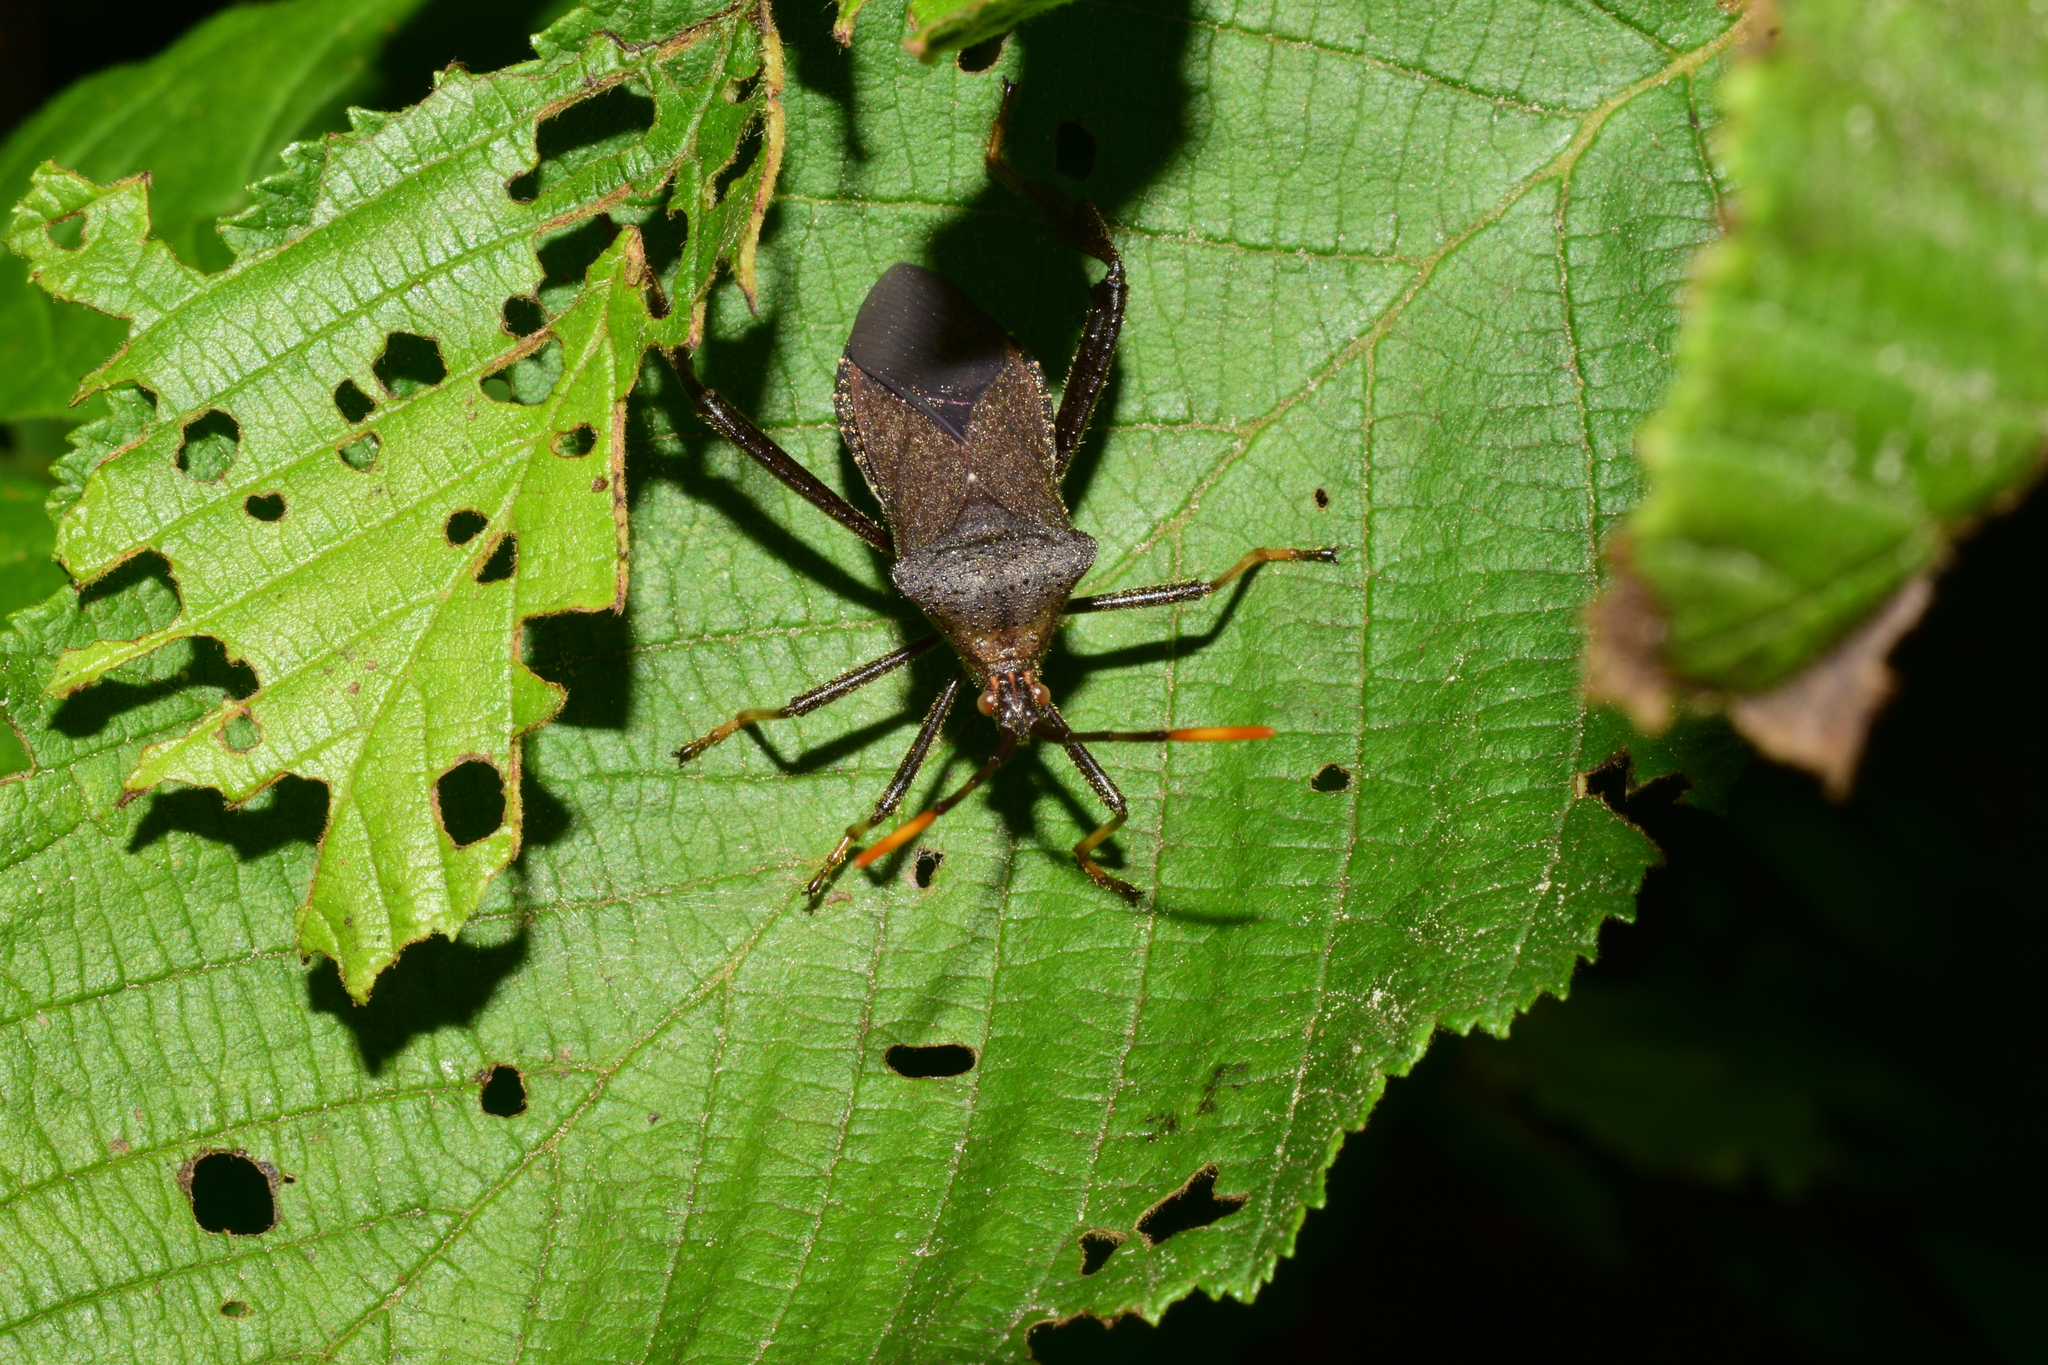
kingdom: Animalia
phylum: Arthropoda
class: Insecta
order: Hemiptera
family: Coreidae
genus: Acanthocephala
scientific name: Acanthocephala terminalis
